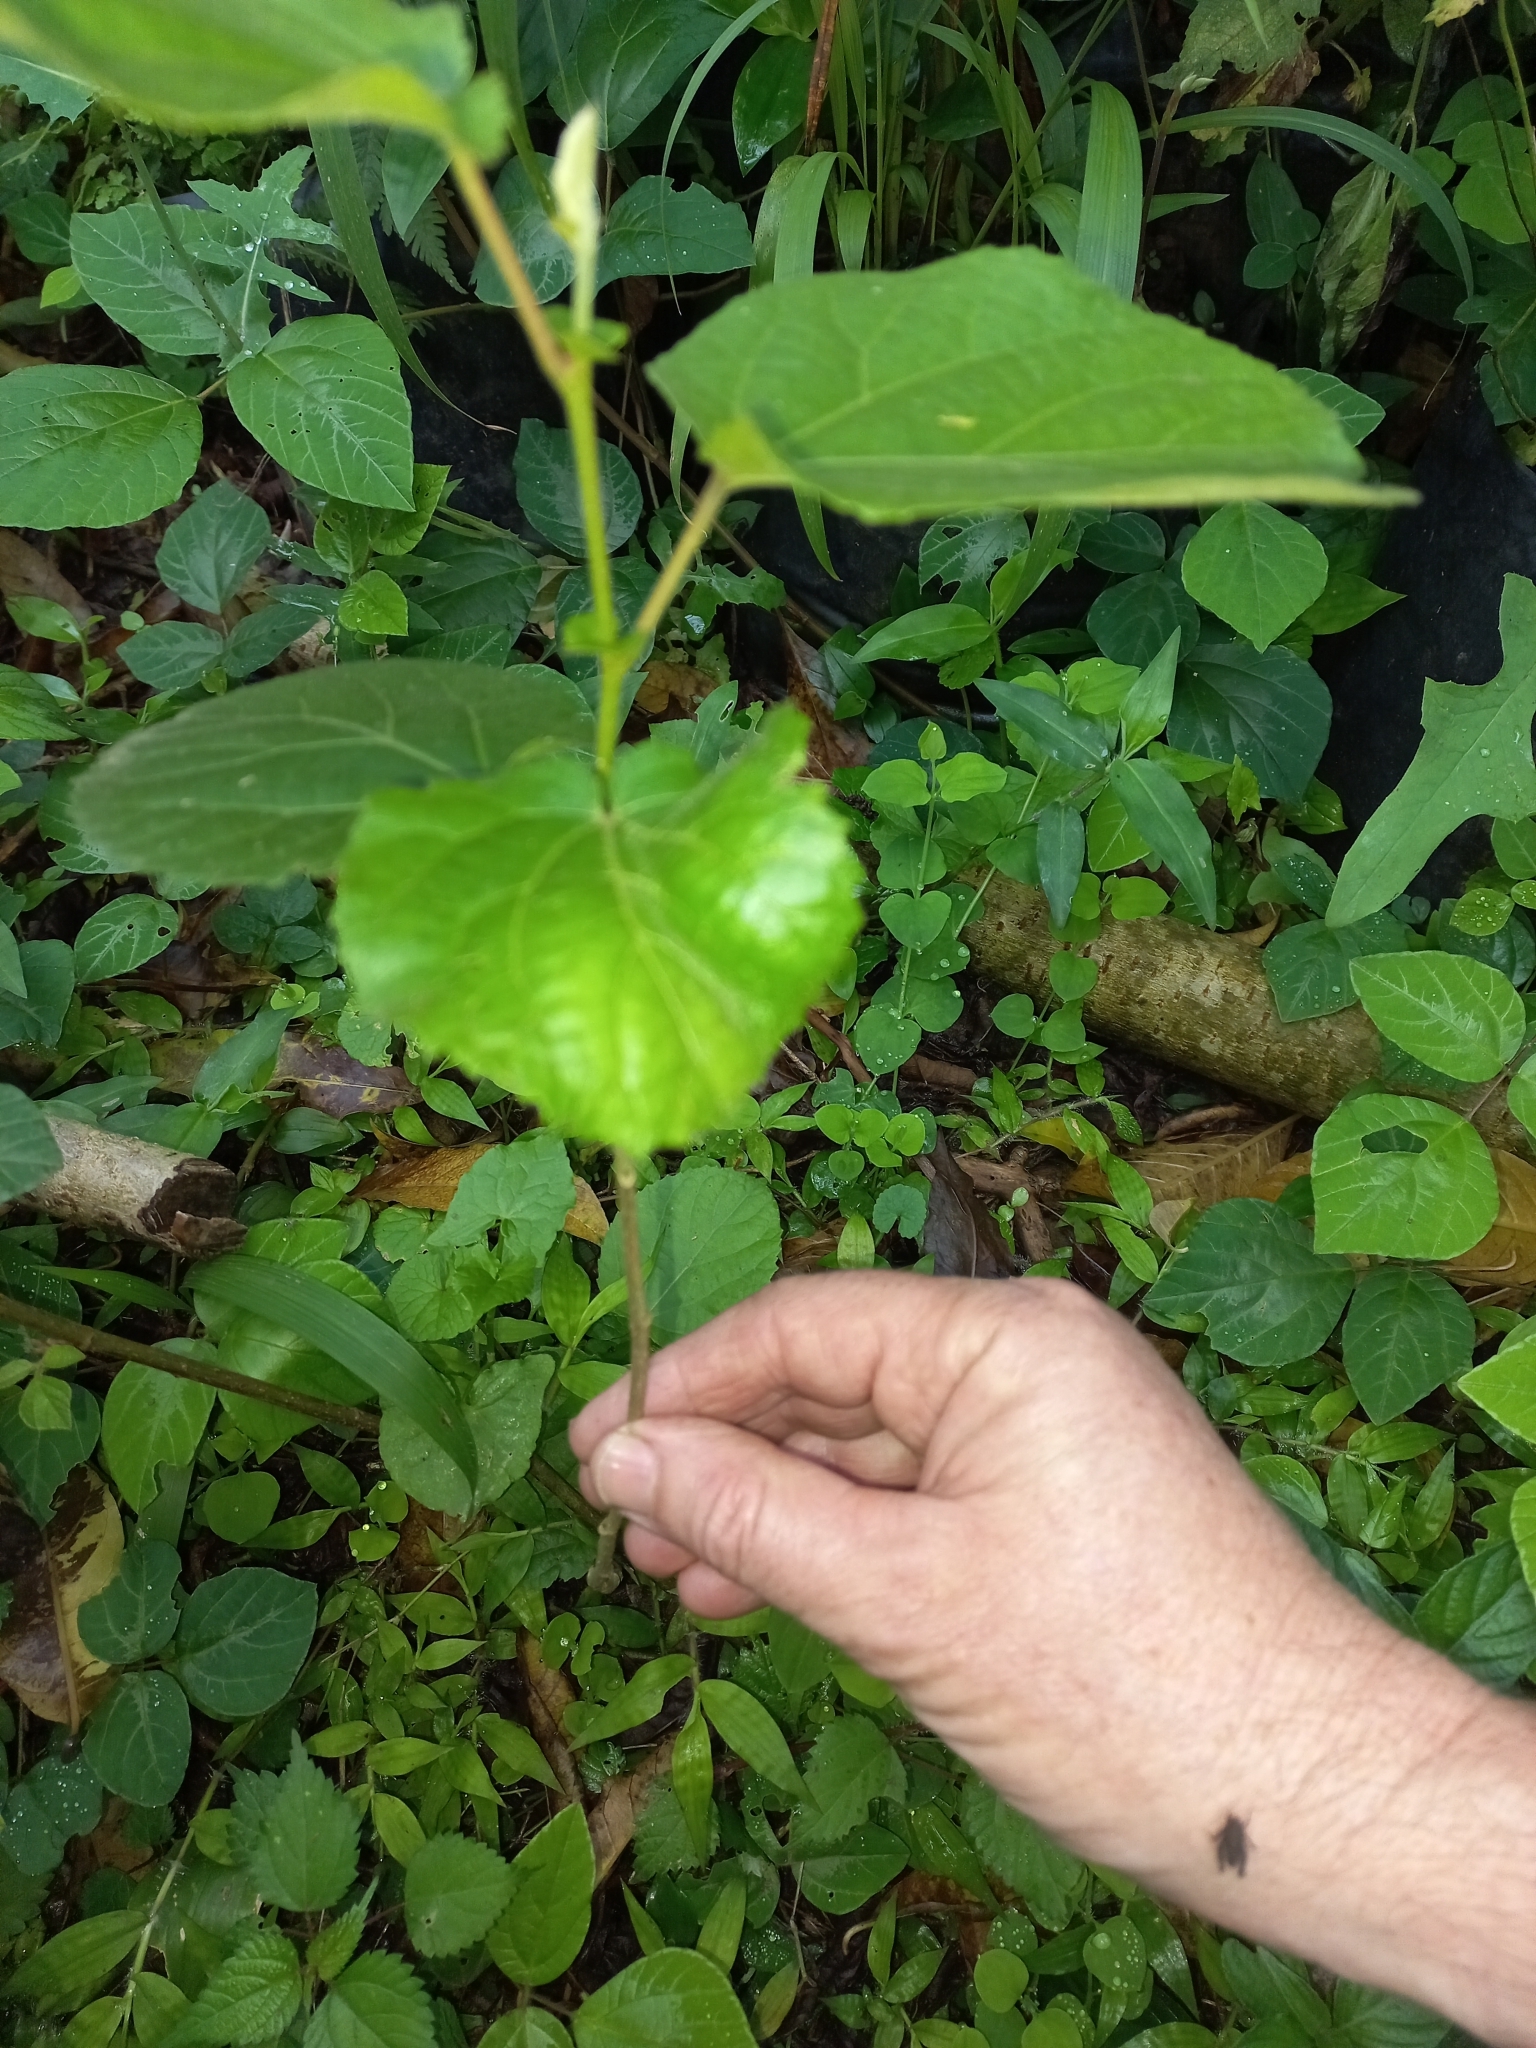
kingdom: Plantae
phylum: Tracheophyta
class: Magnoliopsida
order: Malpighiales
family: Salicaceae
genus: Trimeria
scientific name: Trimeria grandifolia
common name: Wild mulberry
